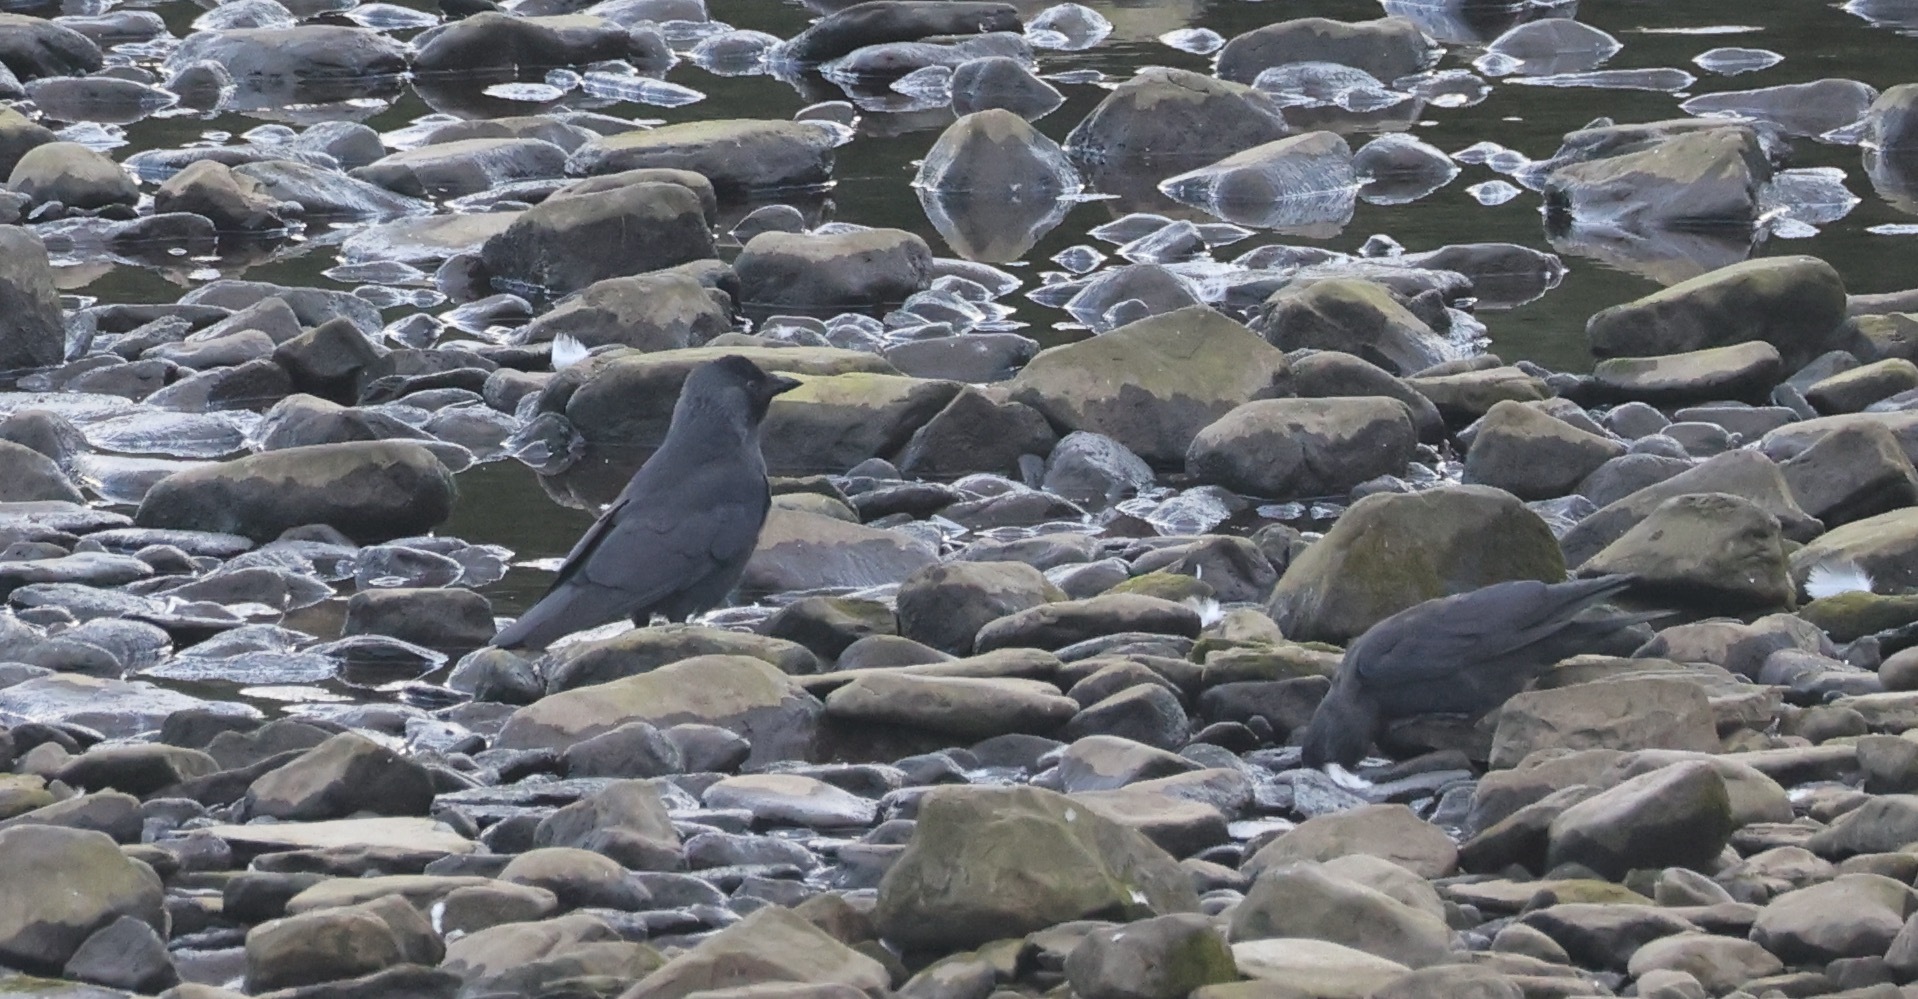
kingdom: Animalia
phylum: Chordata
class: Aves
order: Passeriformes
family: Corvidae
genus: Coloeus
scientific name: Coloeus monedula
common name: Western jackdaw
